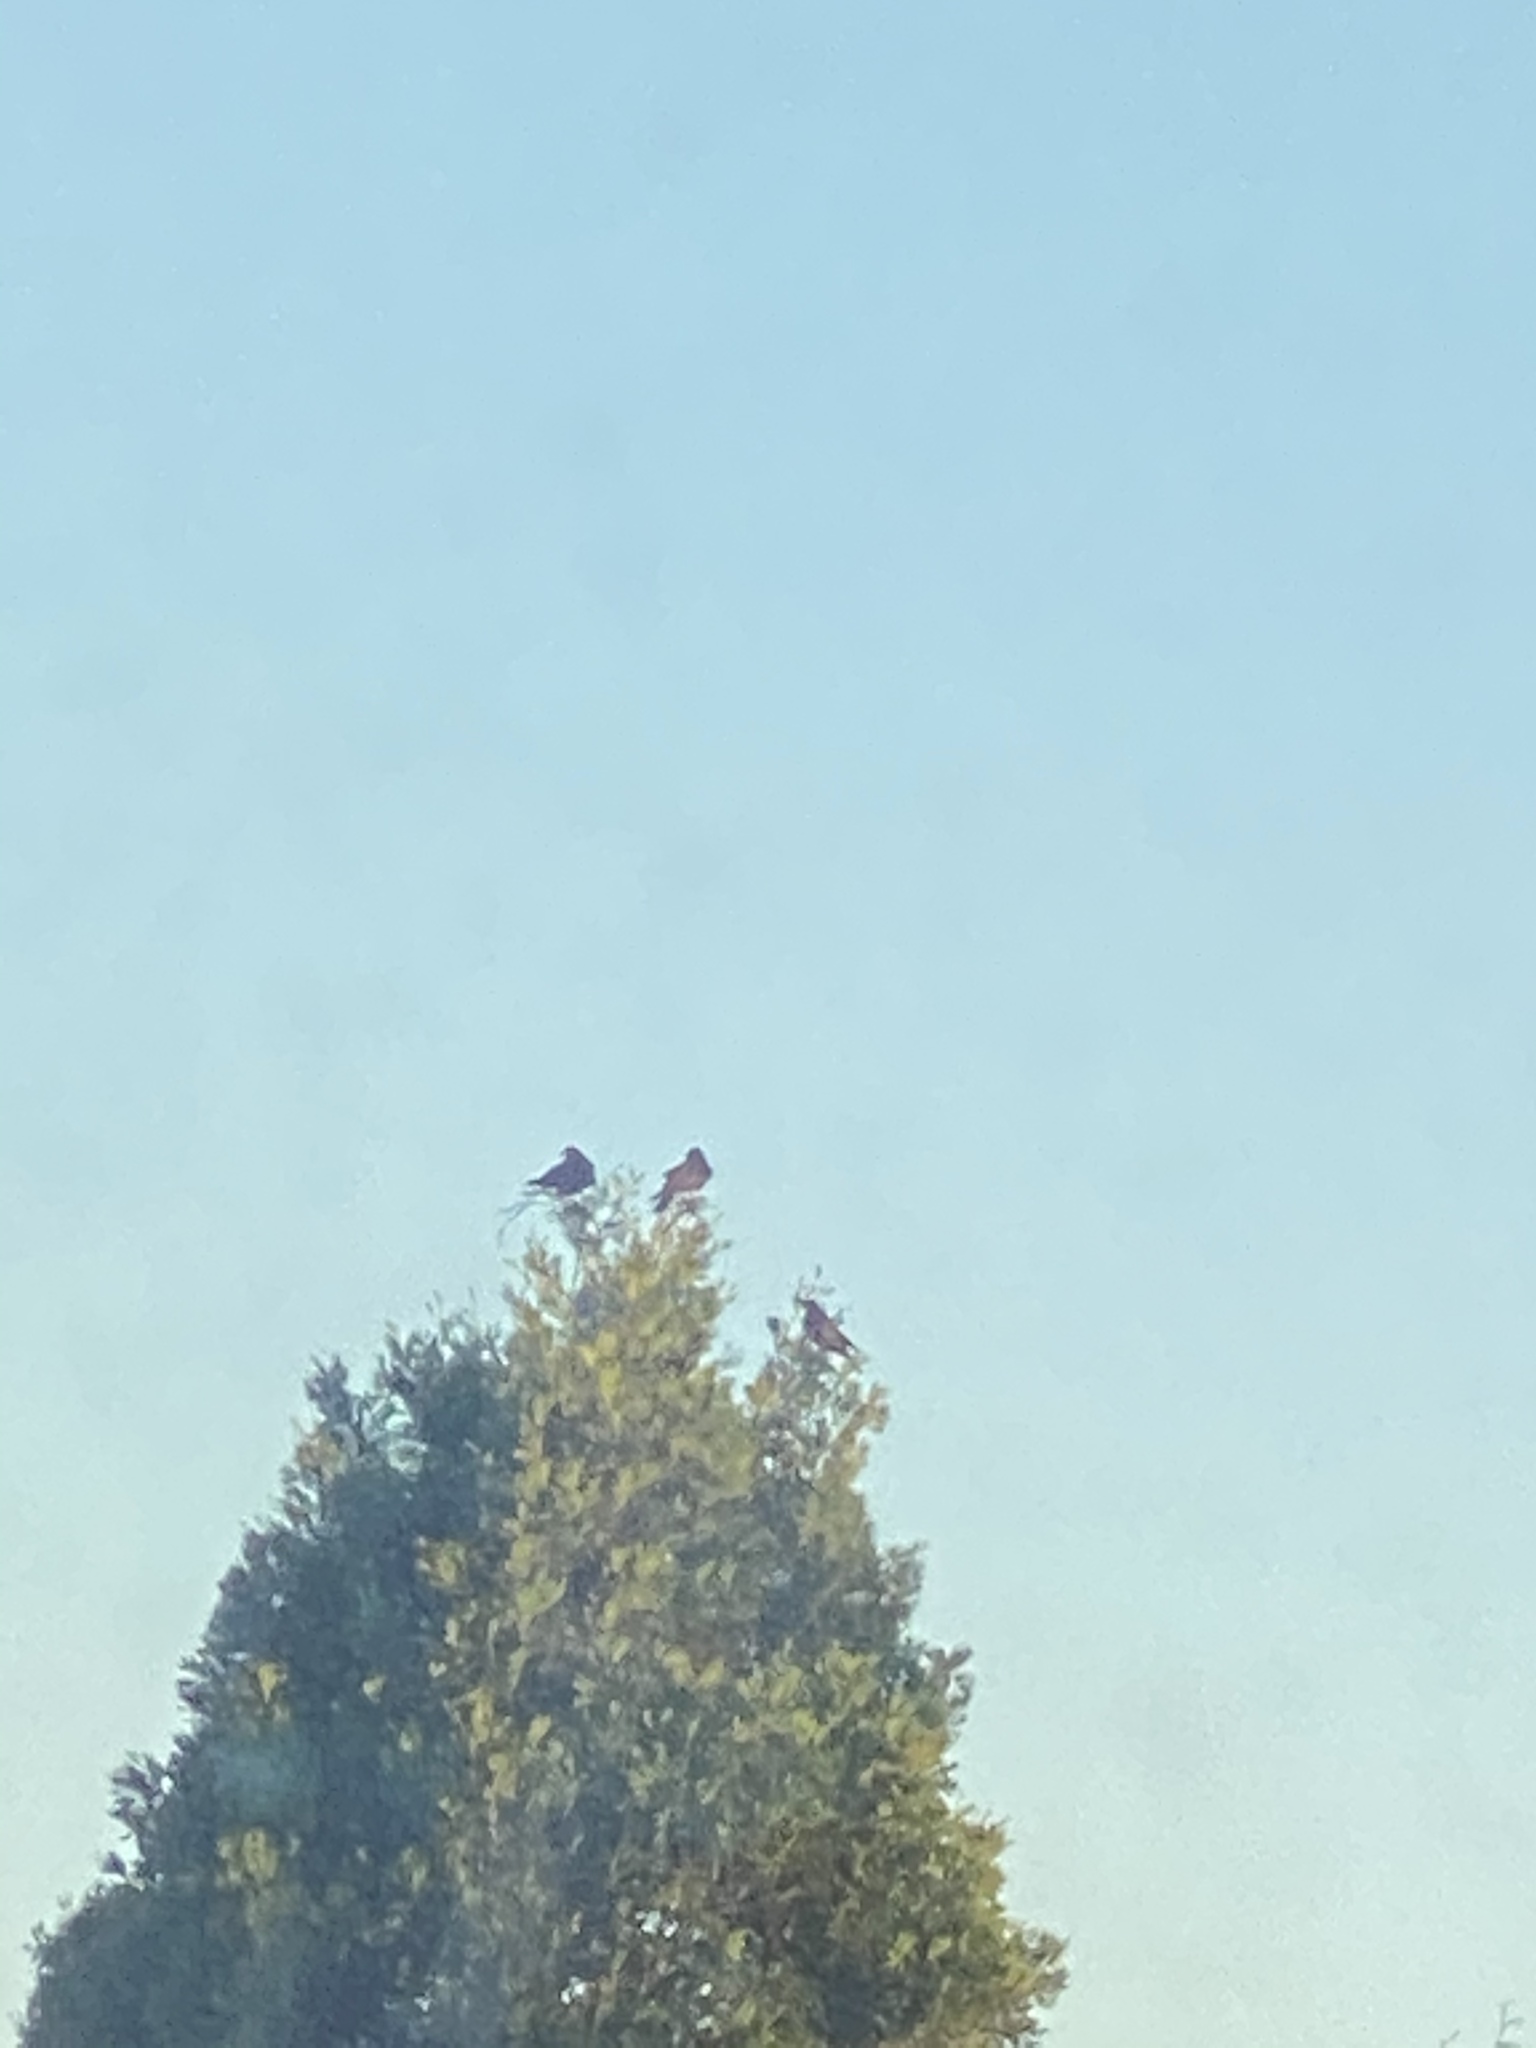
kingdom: Animalia
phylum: Chordata
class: Aves
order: Passeriformes
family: Corvidae
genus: Corvus
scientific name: Corvus brachyrhynchos
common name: American crow
